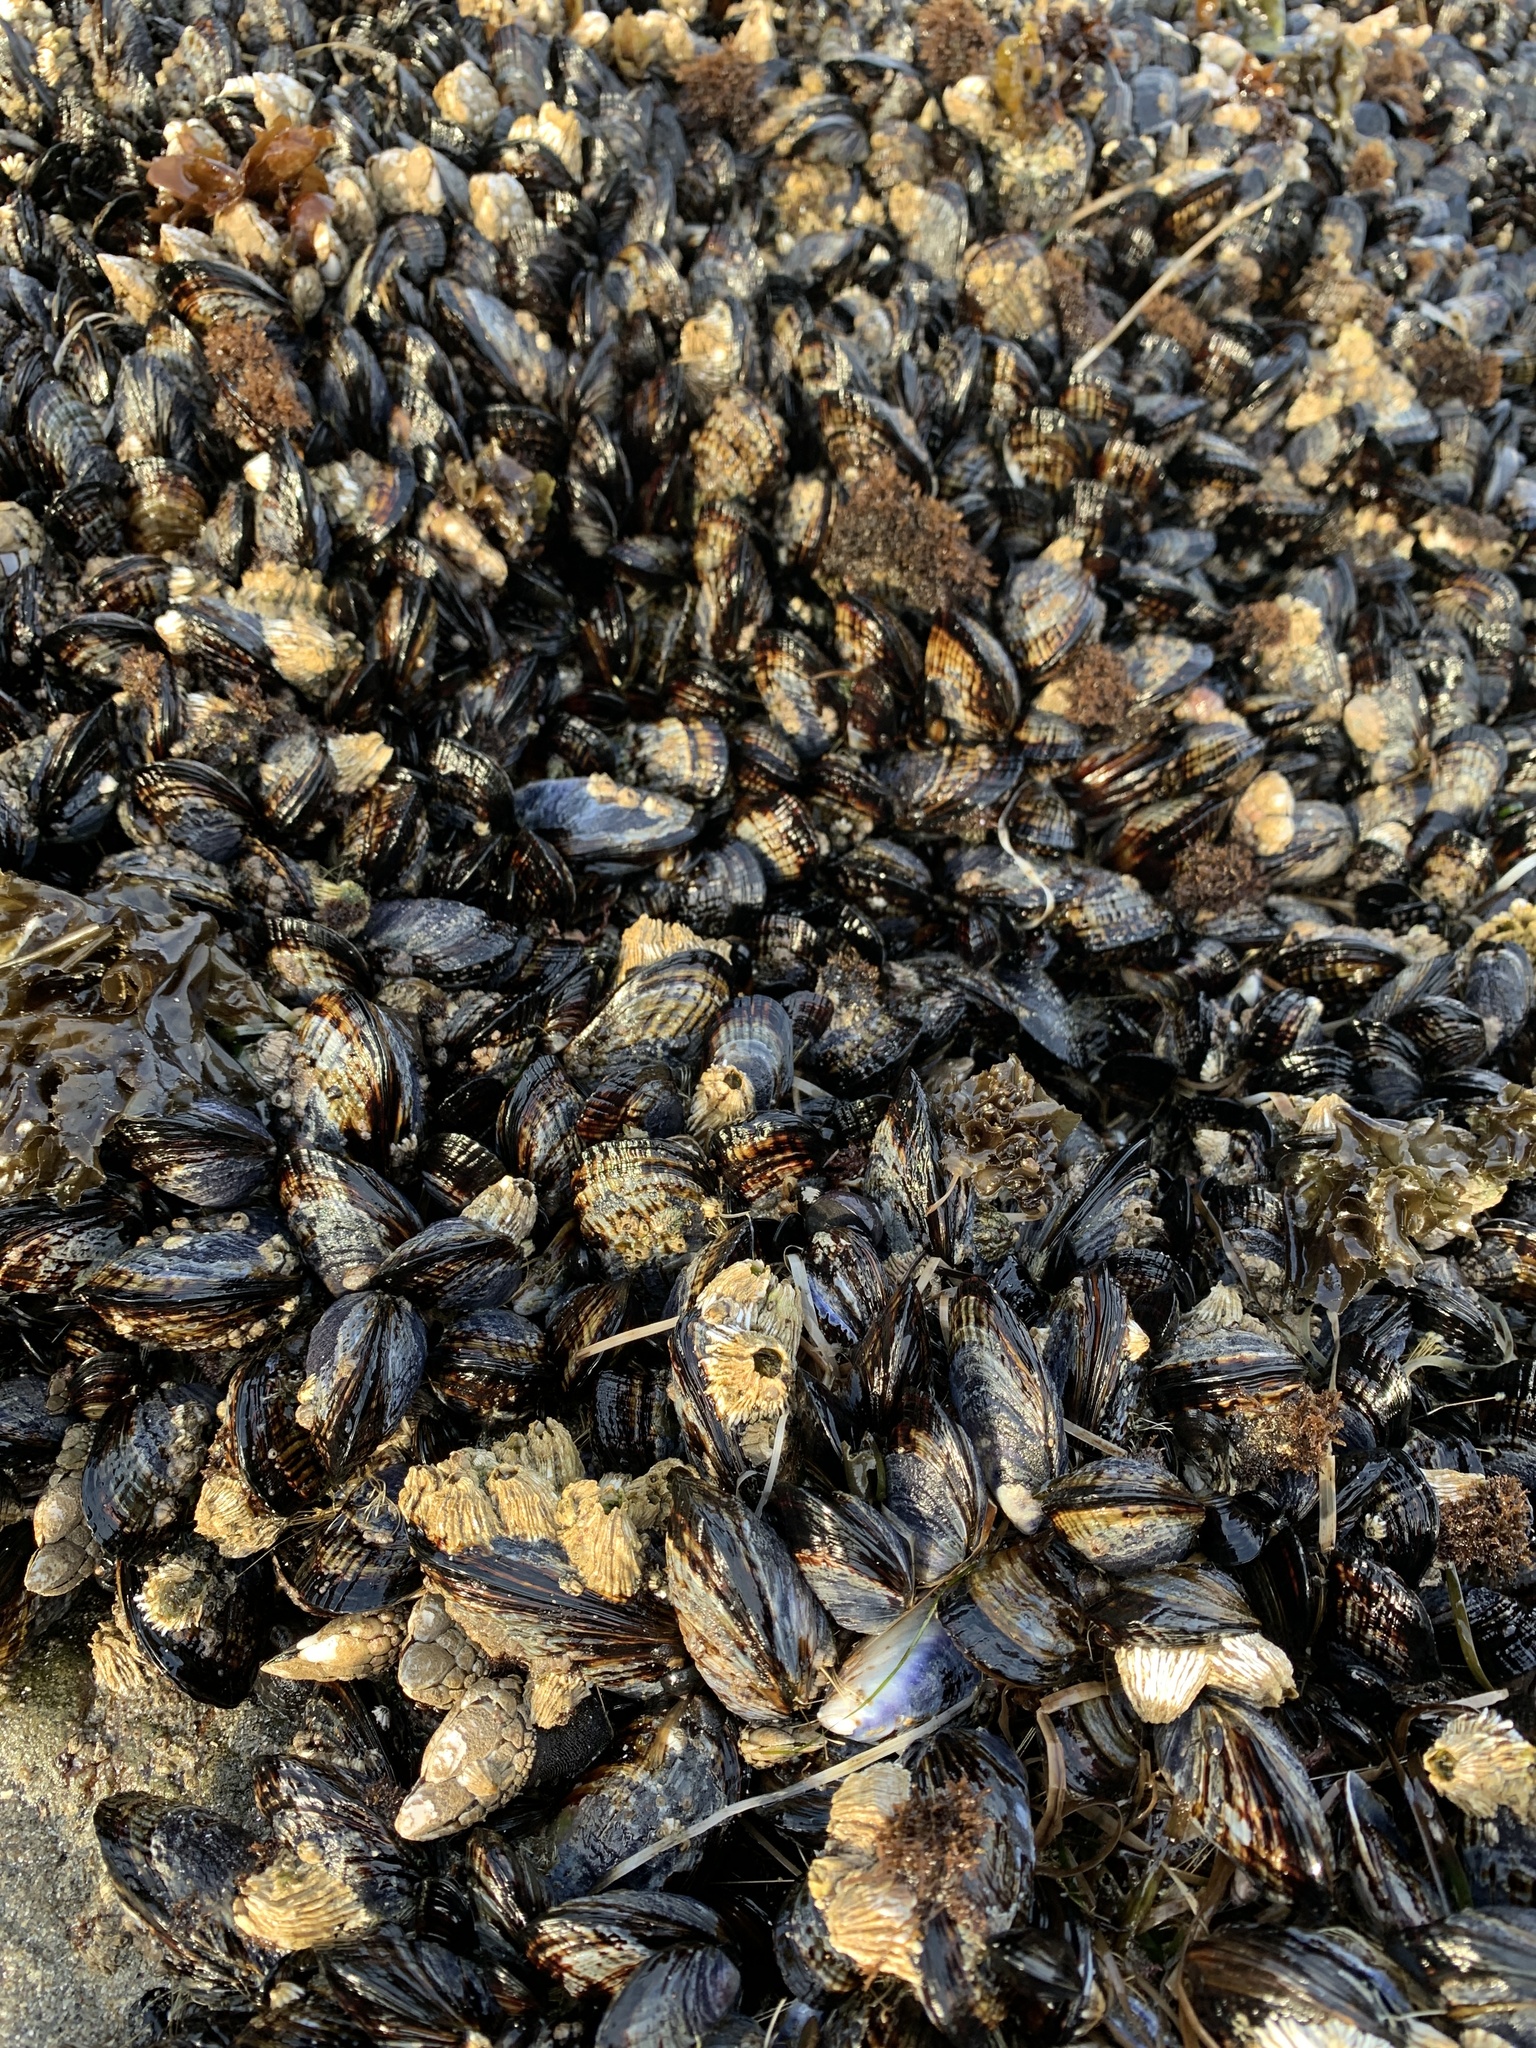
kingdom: Animalia
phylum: Mollusca
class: Bivalvia
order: Mytilida
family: Mytilidae
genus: Mytilus
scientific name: Mytilus californianus
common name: California mussel
